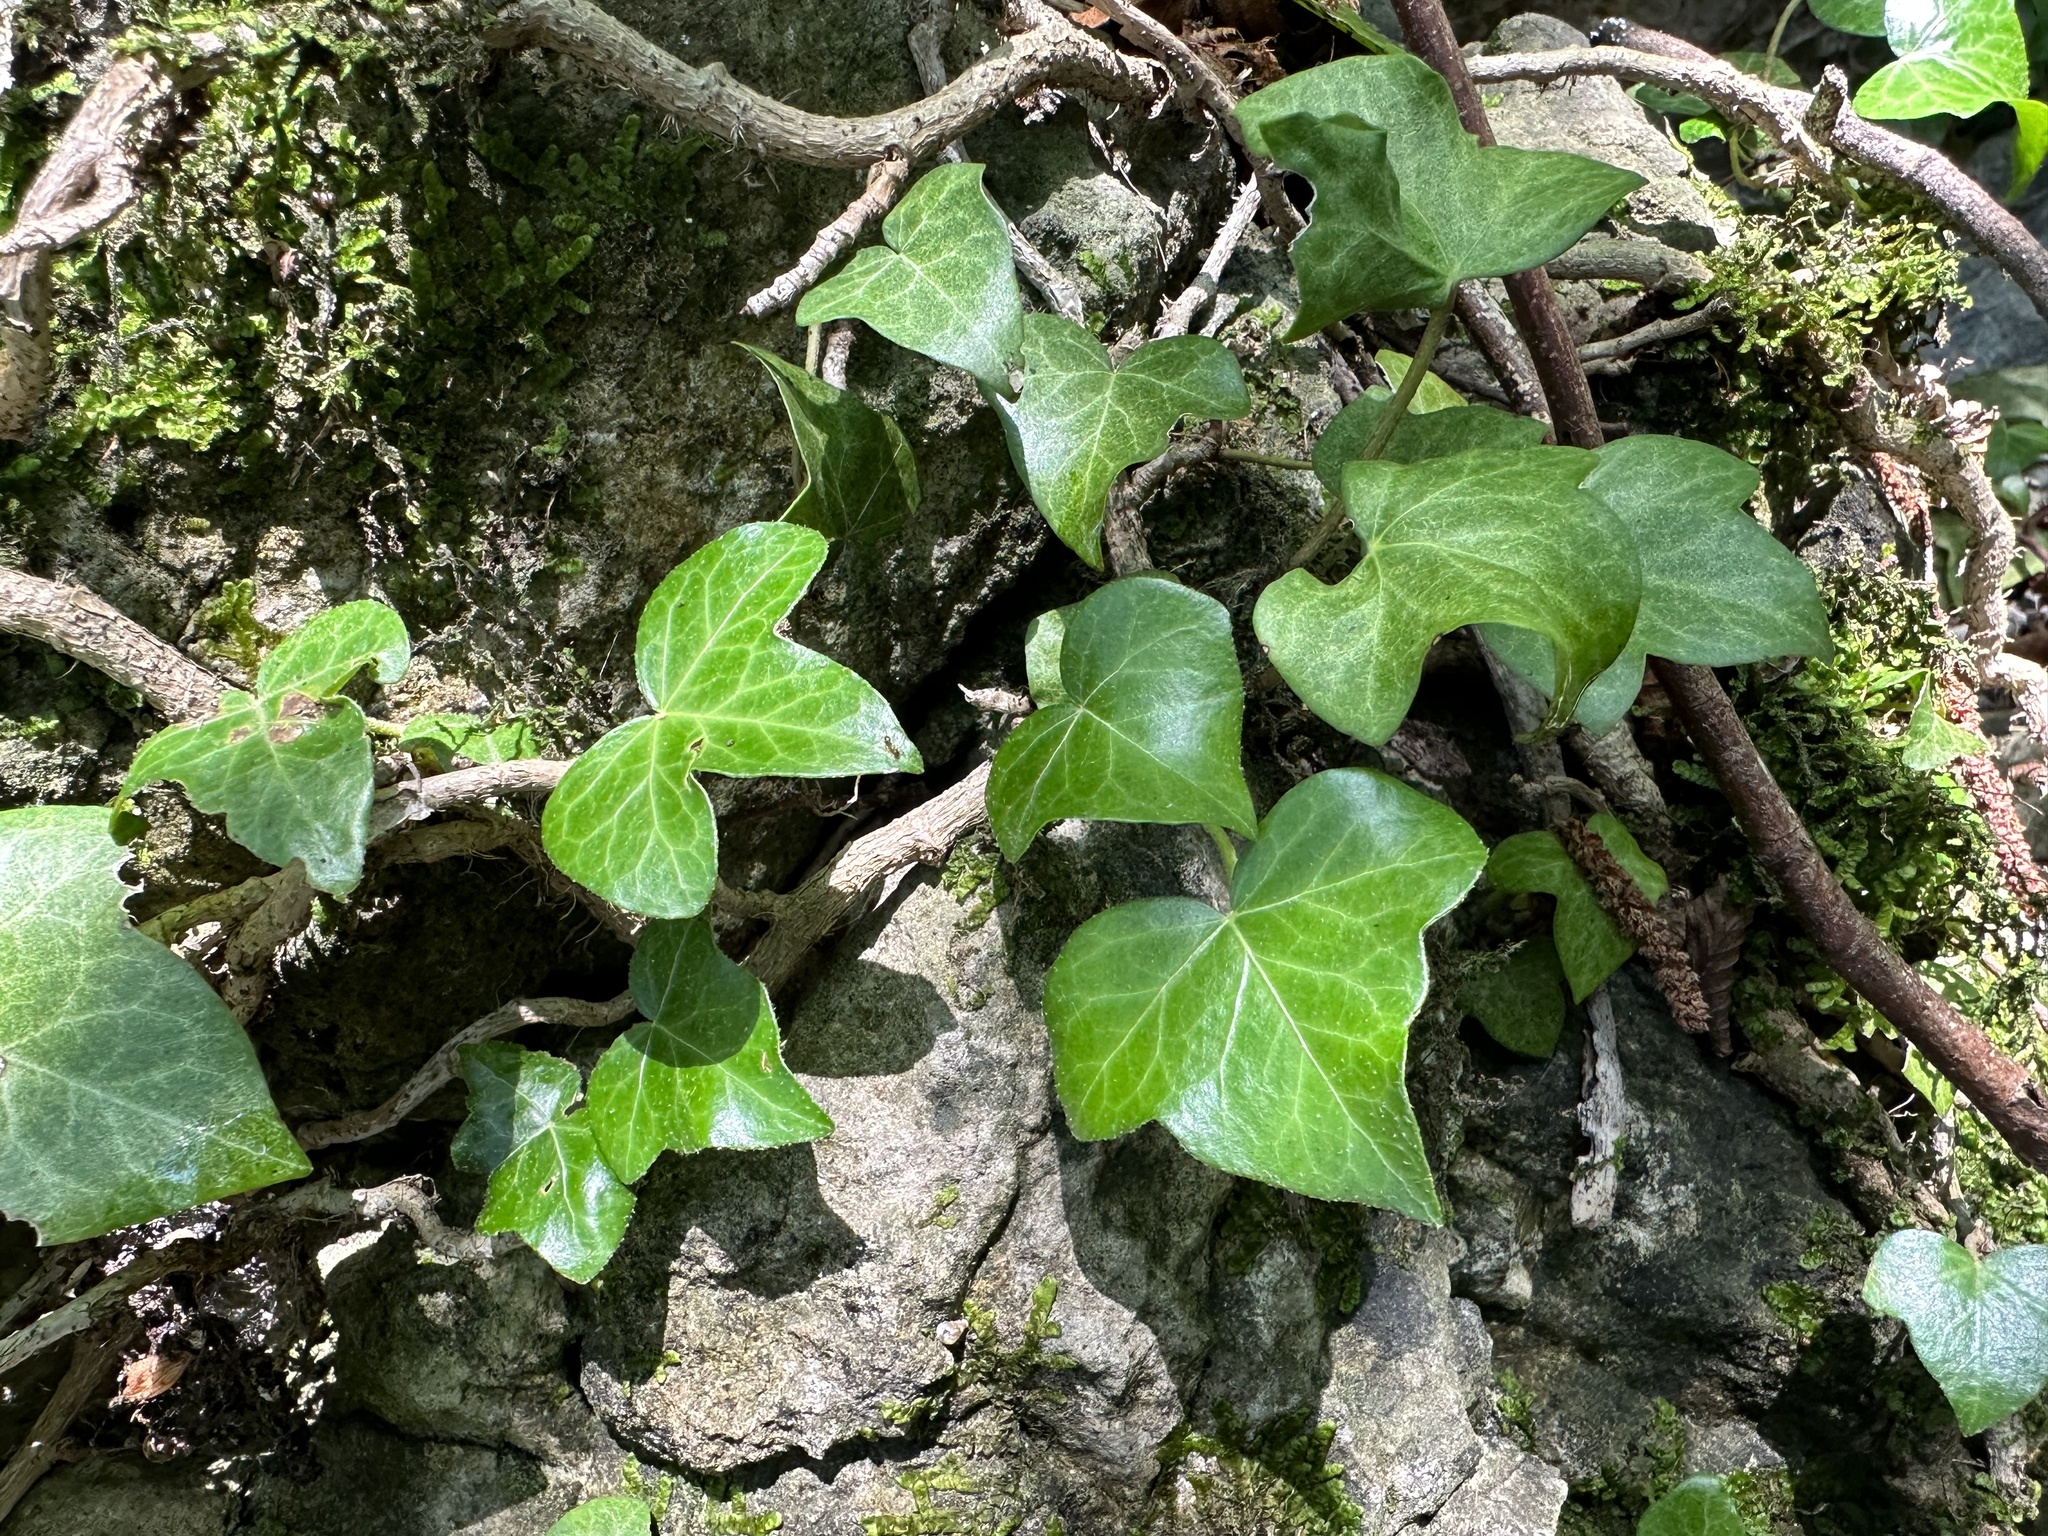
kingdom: Plantae
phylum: Tracheophyta
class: Magnoliopsida
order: Apiales
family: Araliaceae
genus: Hedera
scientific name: Hedera helix
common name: Ivy
